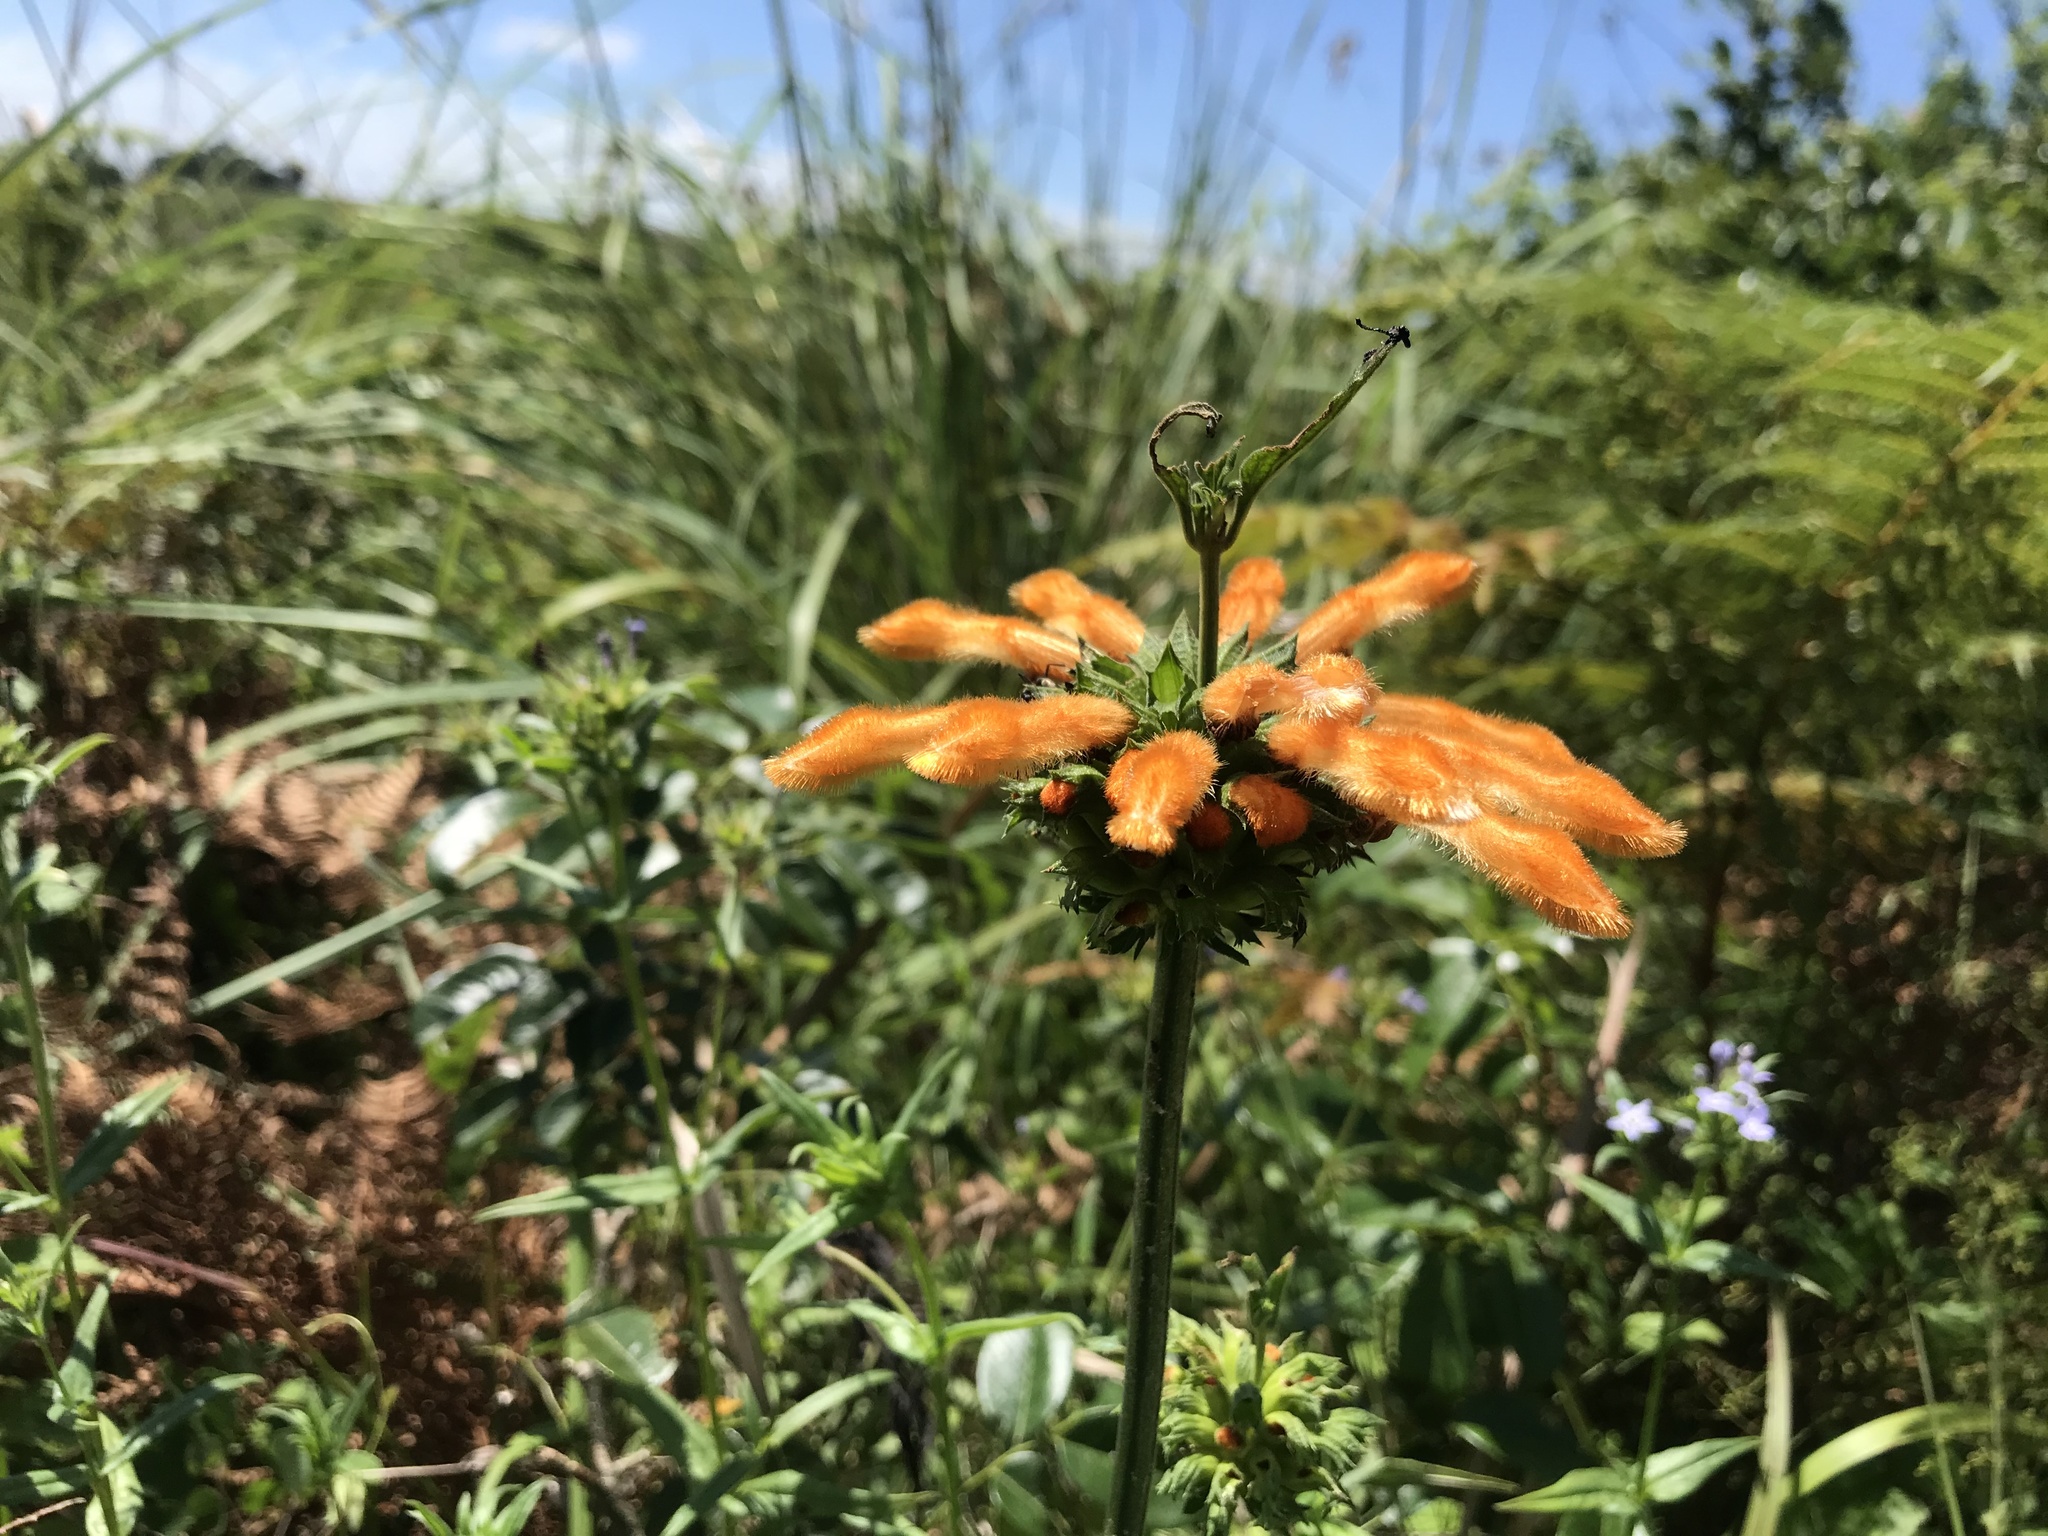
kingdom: Plantae
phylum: Tracheophyta
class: Magnoliopsida
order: Lamiales
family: Lamiaceae
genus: Leonotis
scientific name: Leonotis ocymifolia
